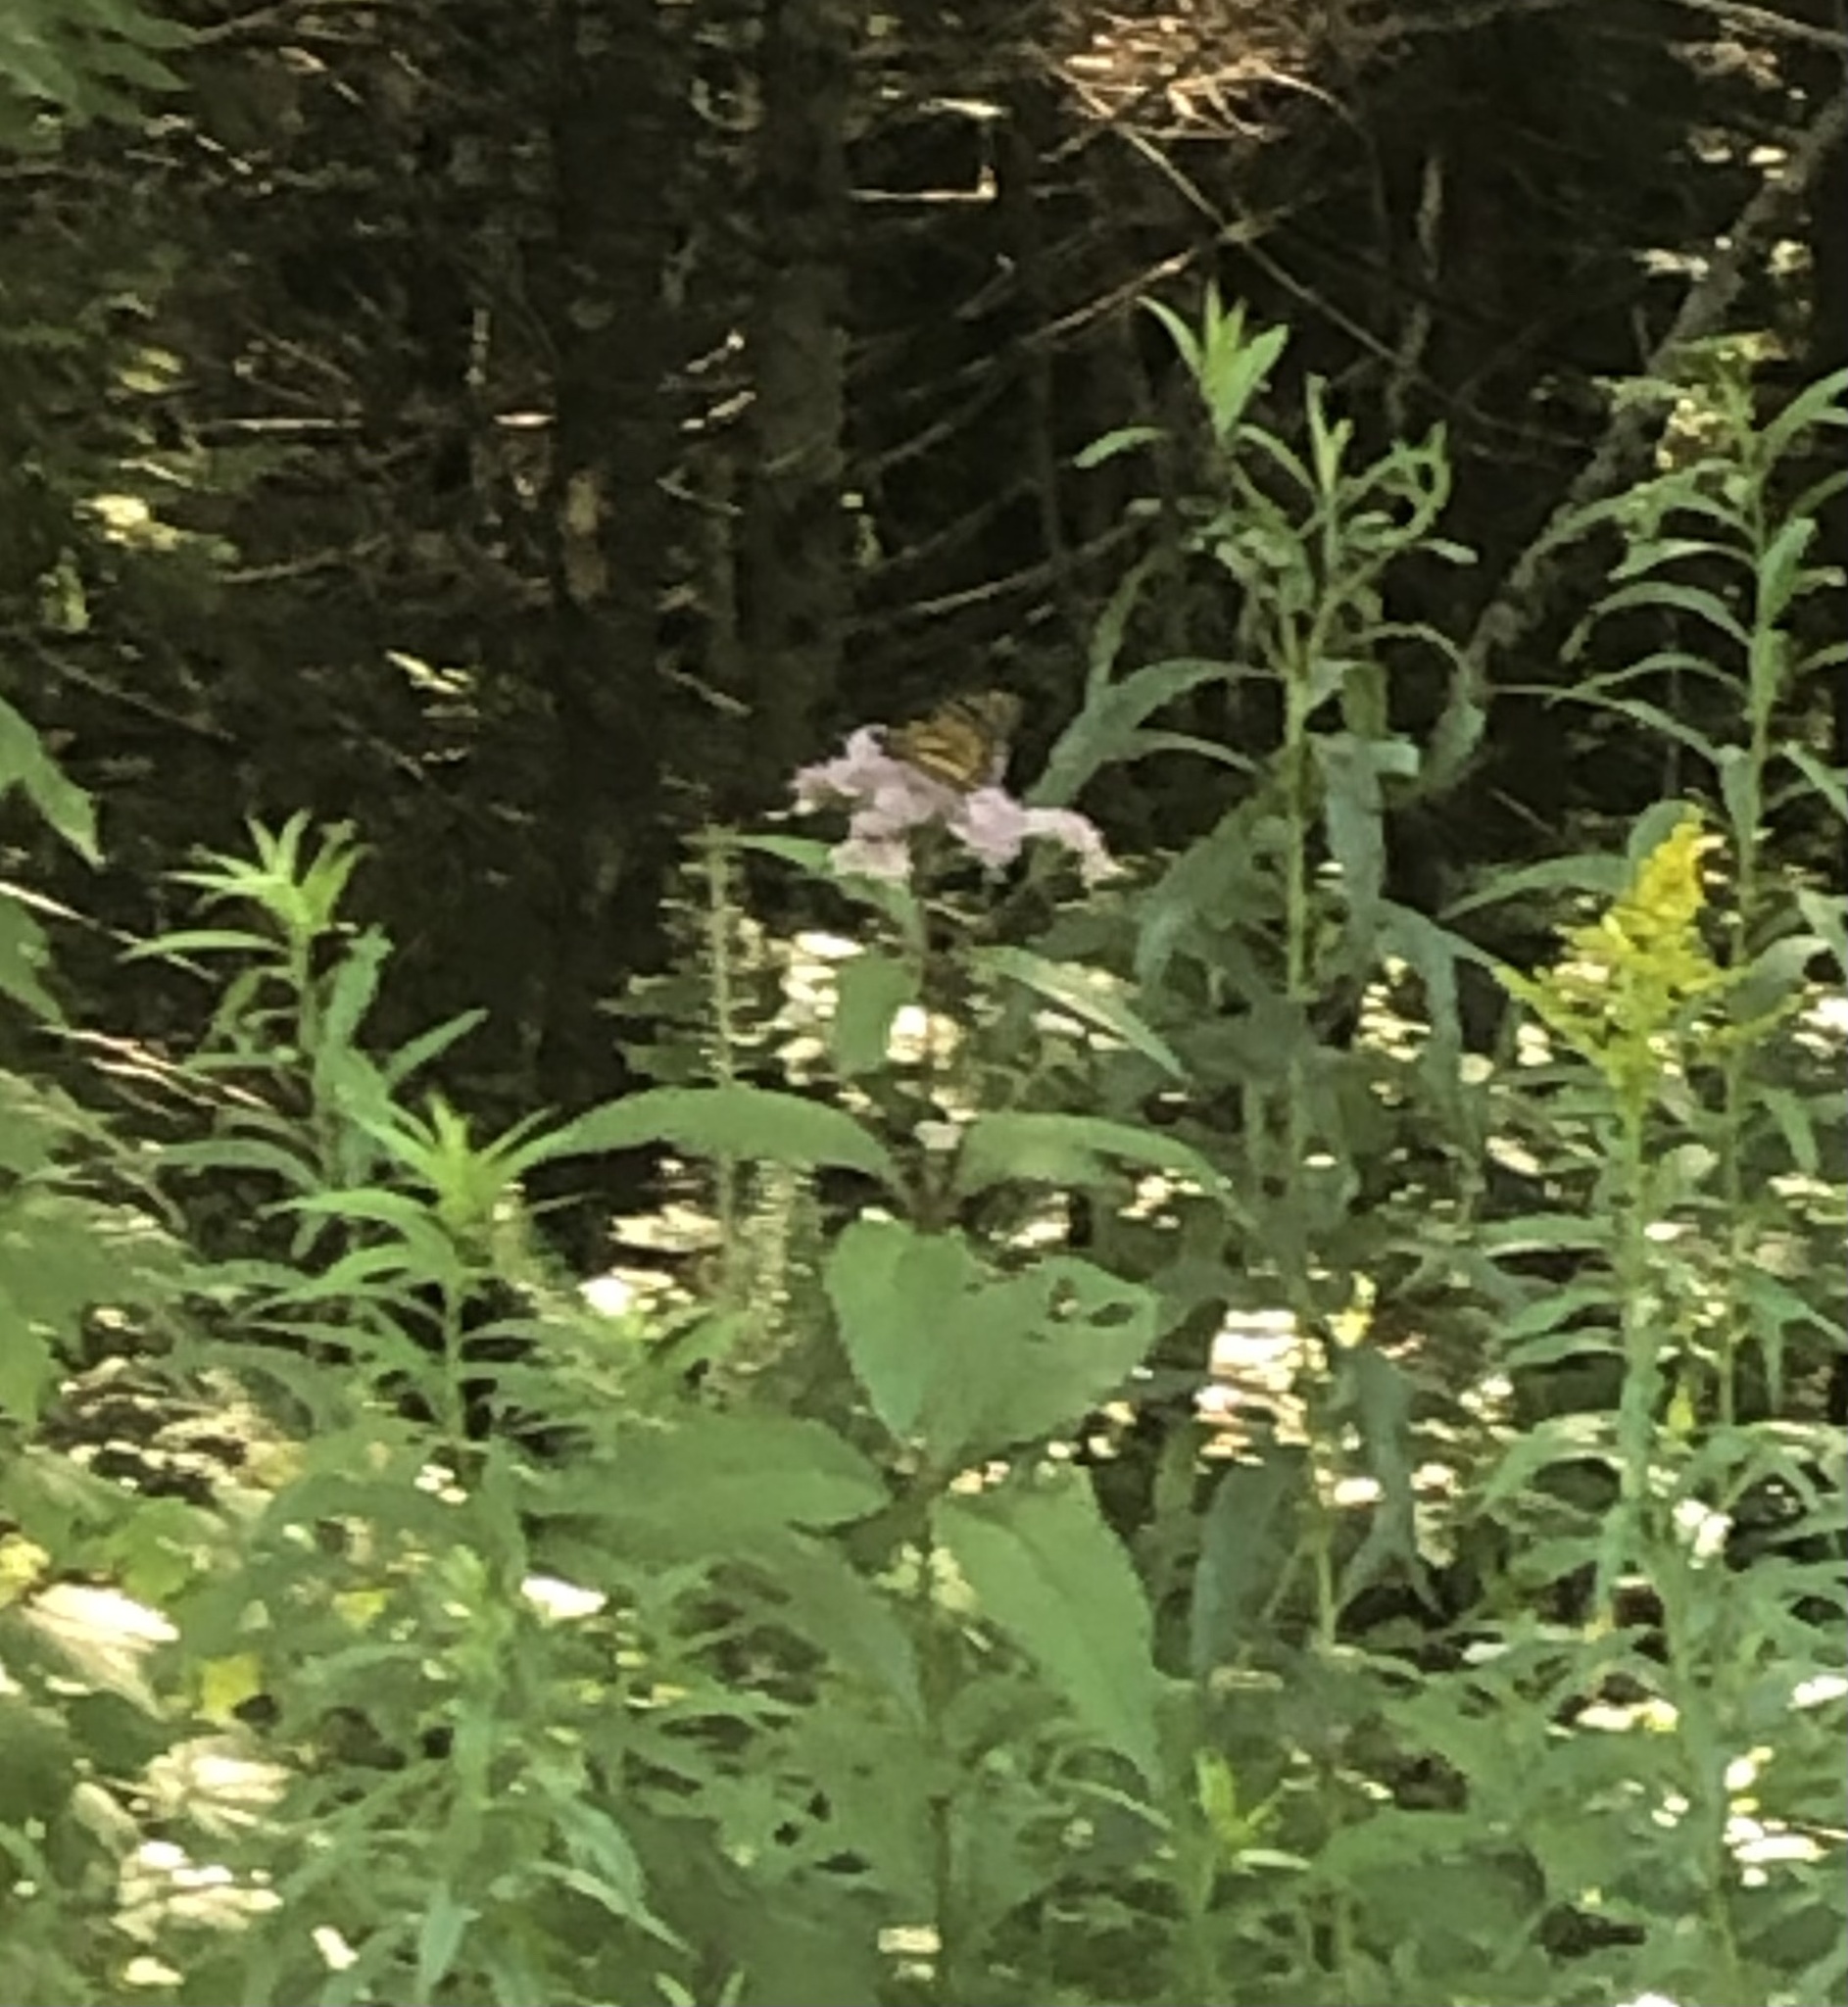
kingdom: Animalia
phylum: Arthropoda
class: Insecta
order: Lepidoptera
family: Nymphalidae
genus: Danaus
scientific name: Danaus plexippus
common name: Monarch
